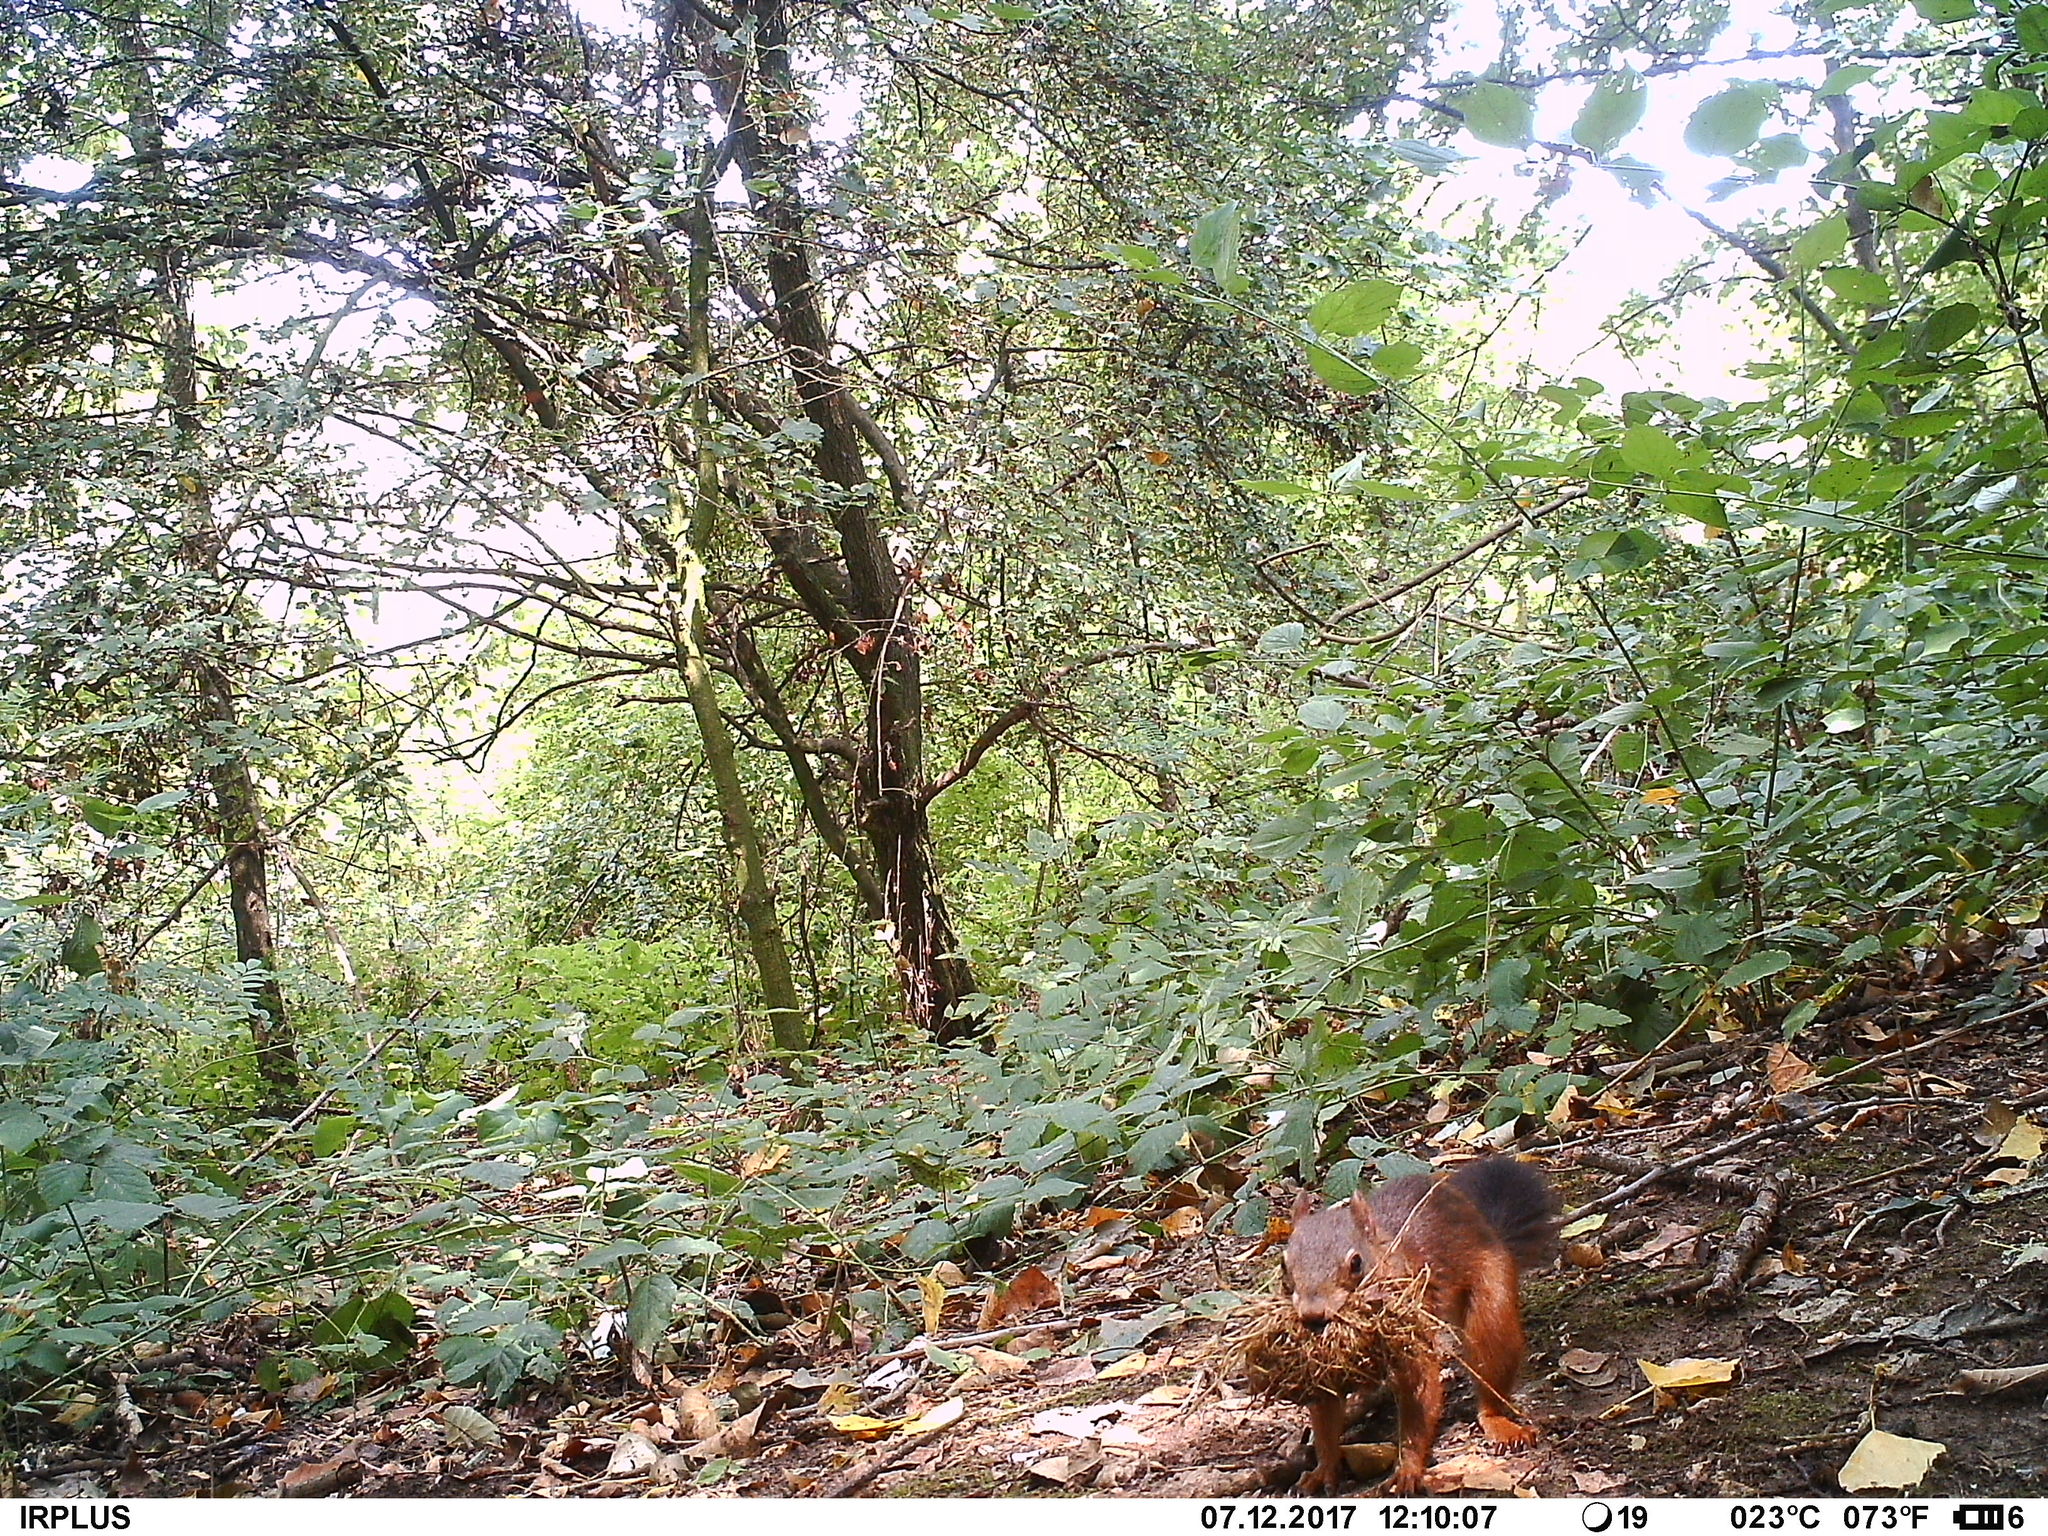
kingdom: Animalia
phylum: Chordata
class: Mammalia
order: Rodentia
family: Sciuridae
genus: Sciurus
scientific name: Sciurus vulgaris
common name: Eurasian red squirrel
